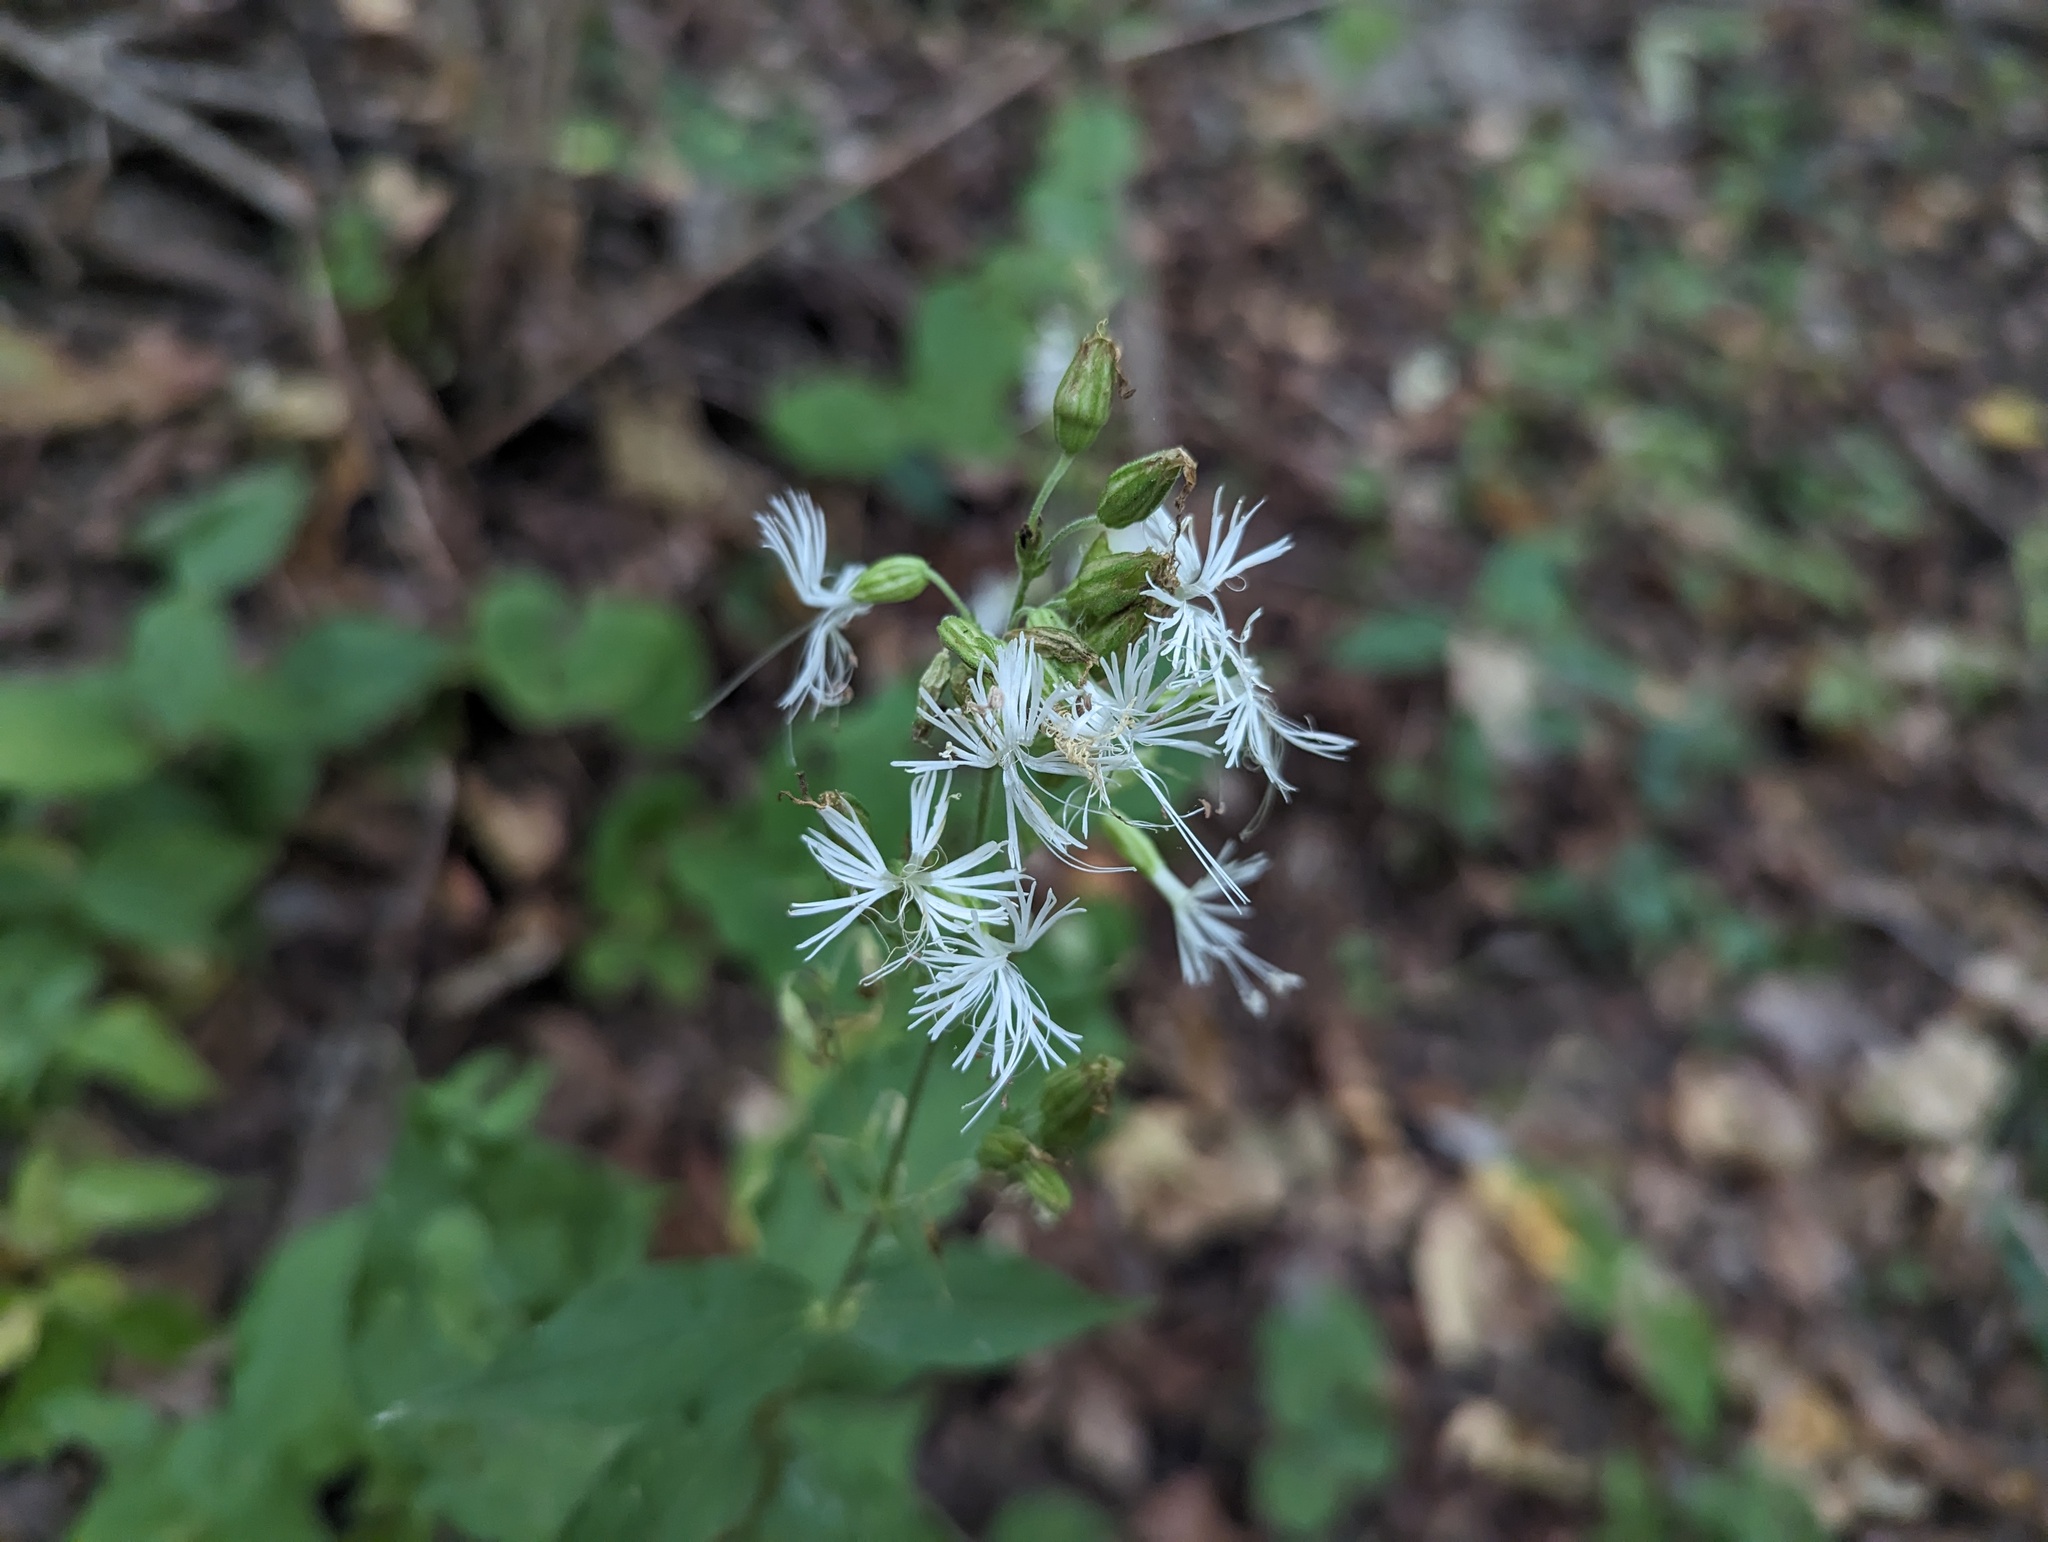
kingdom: Plantae
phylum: Tracheophyta
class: Magnoliopsida
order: Caryophyllales
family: Caryophyllaceae
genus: Silene
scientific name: Silene ovata
